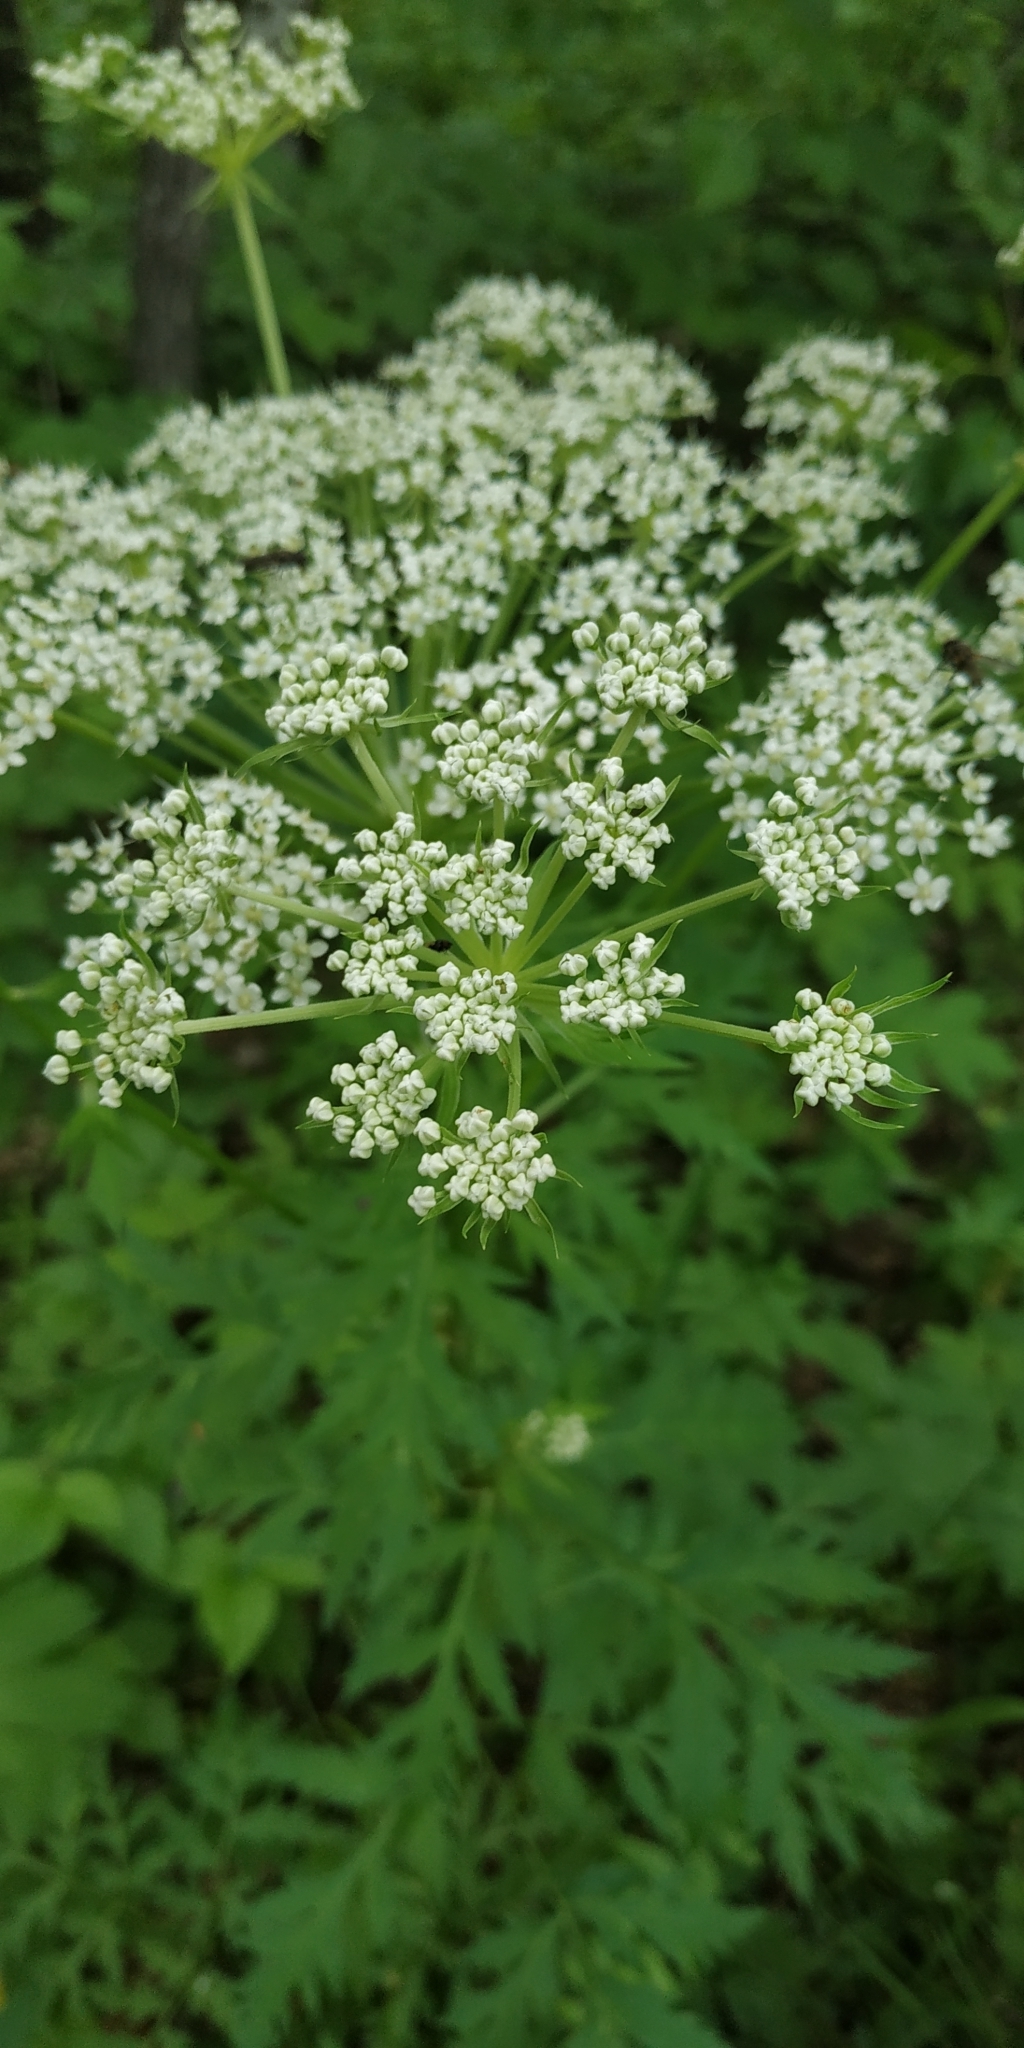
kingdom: Plantae
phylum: Tracheophyta
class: Magnoliopsida
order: Apiales
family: Apiaceae
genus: Pleurospermum
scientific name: Pleurospermum uralense
